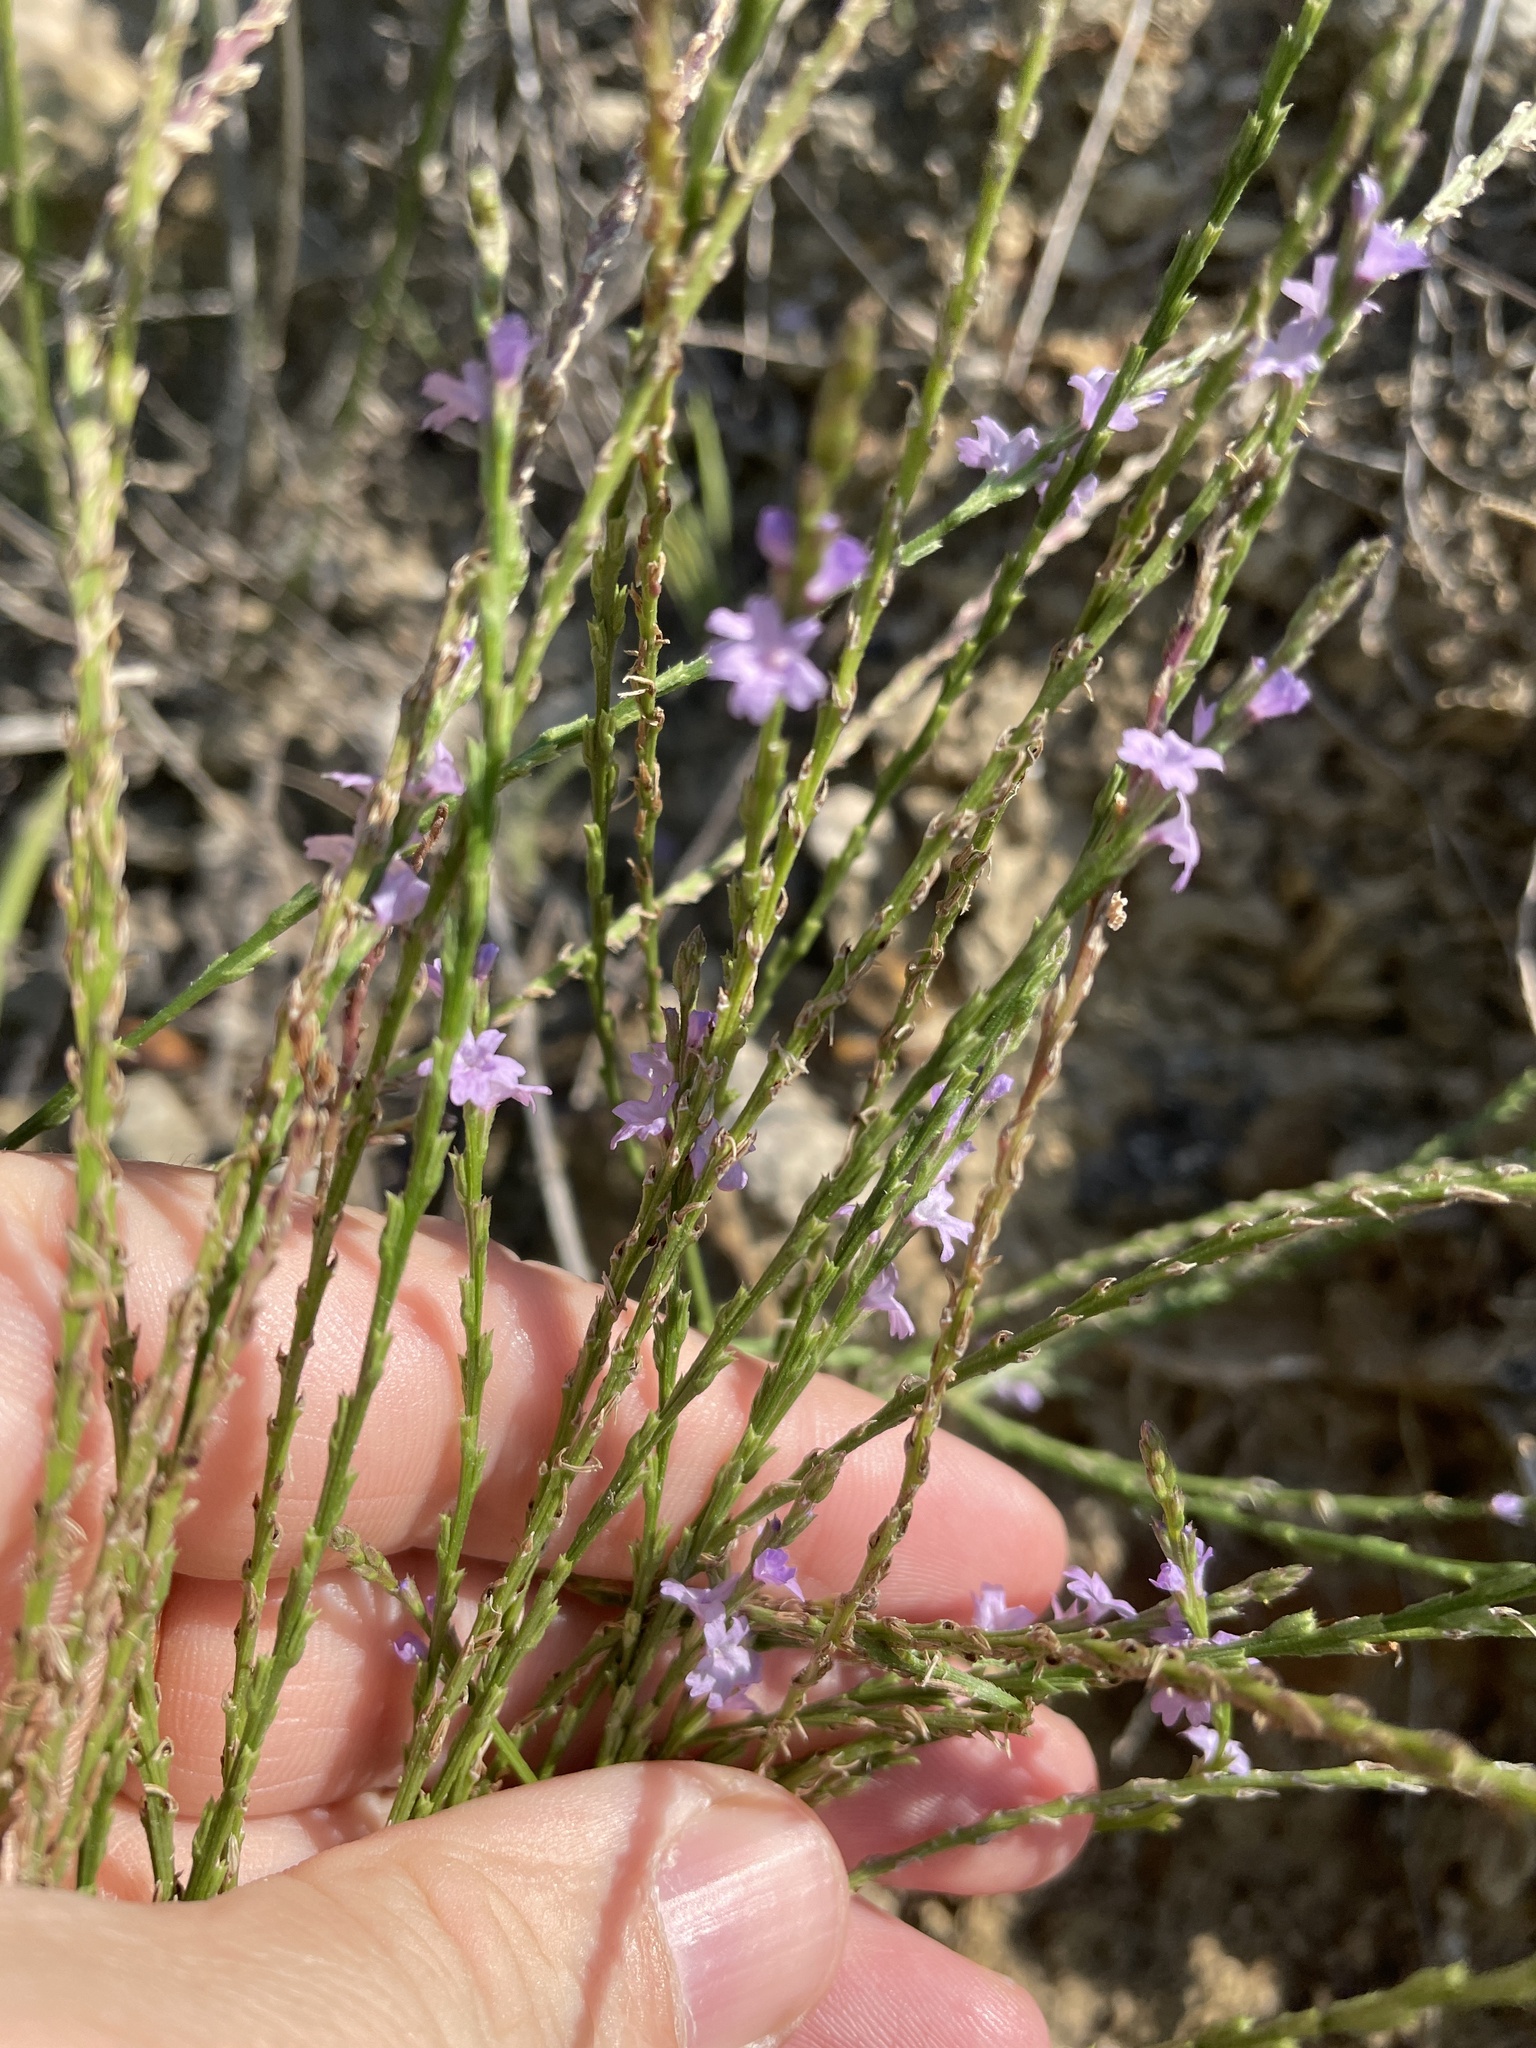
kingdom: Plantae
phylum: Tracheophyta
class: Magnoliopsida
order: Lamiales
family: Verbenaceae
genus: Verbena
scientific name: Verbena halei
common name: Texas vervain
